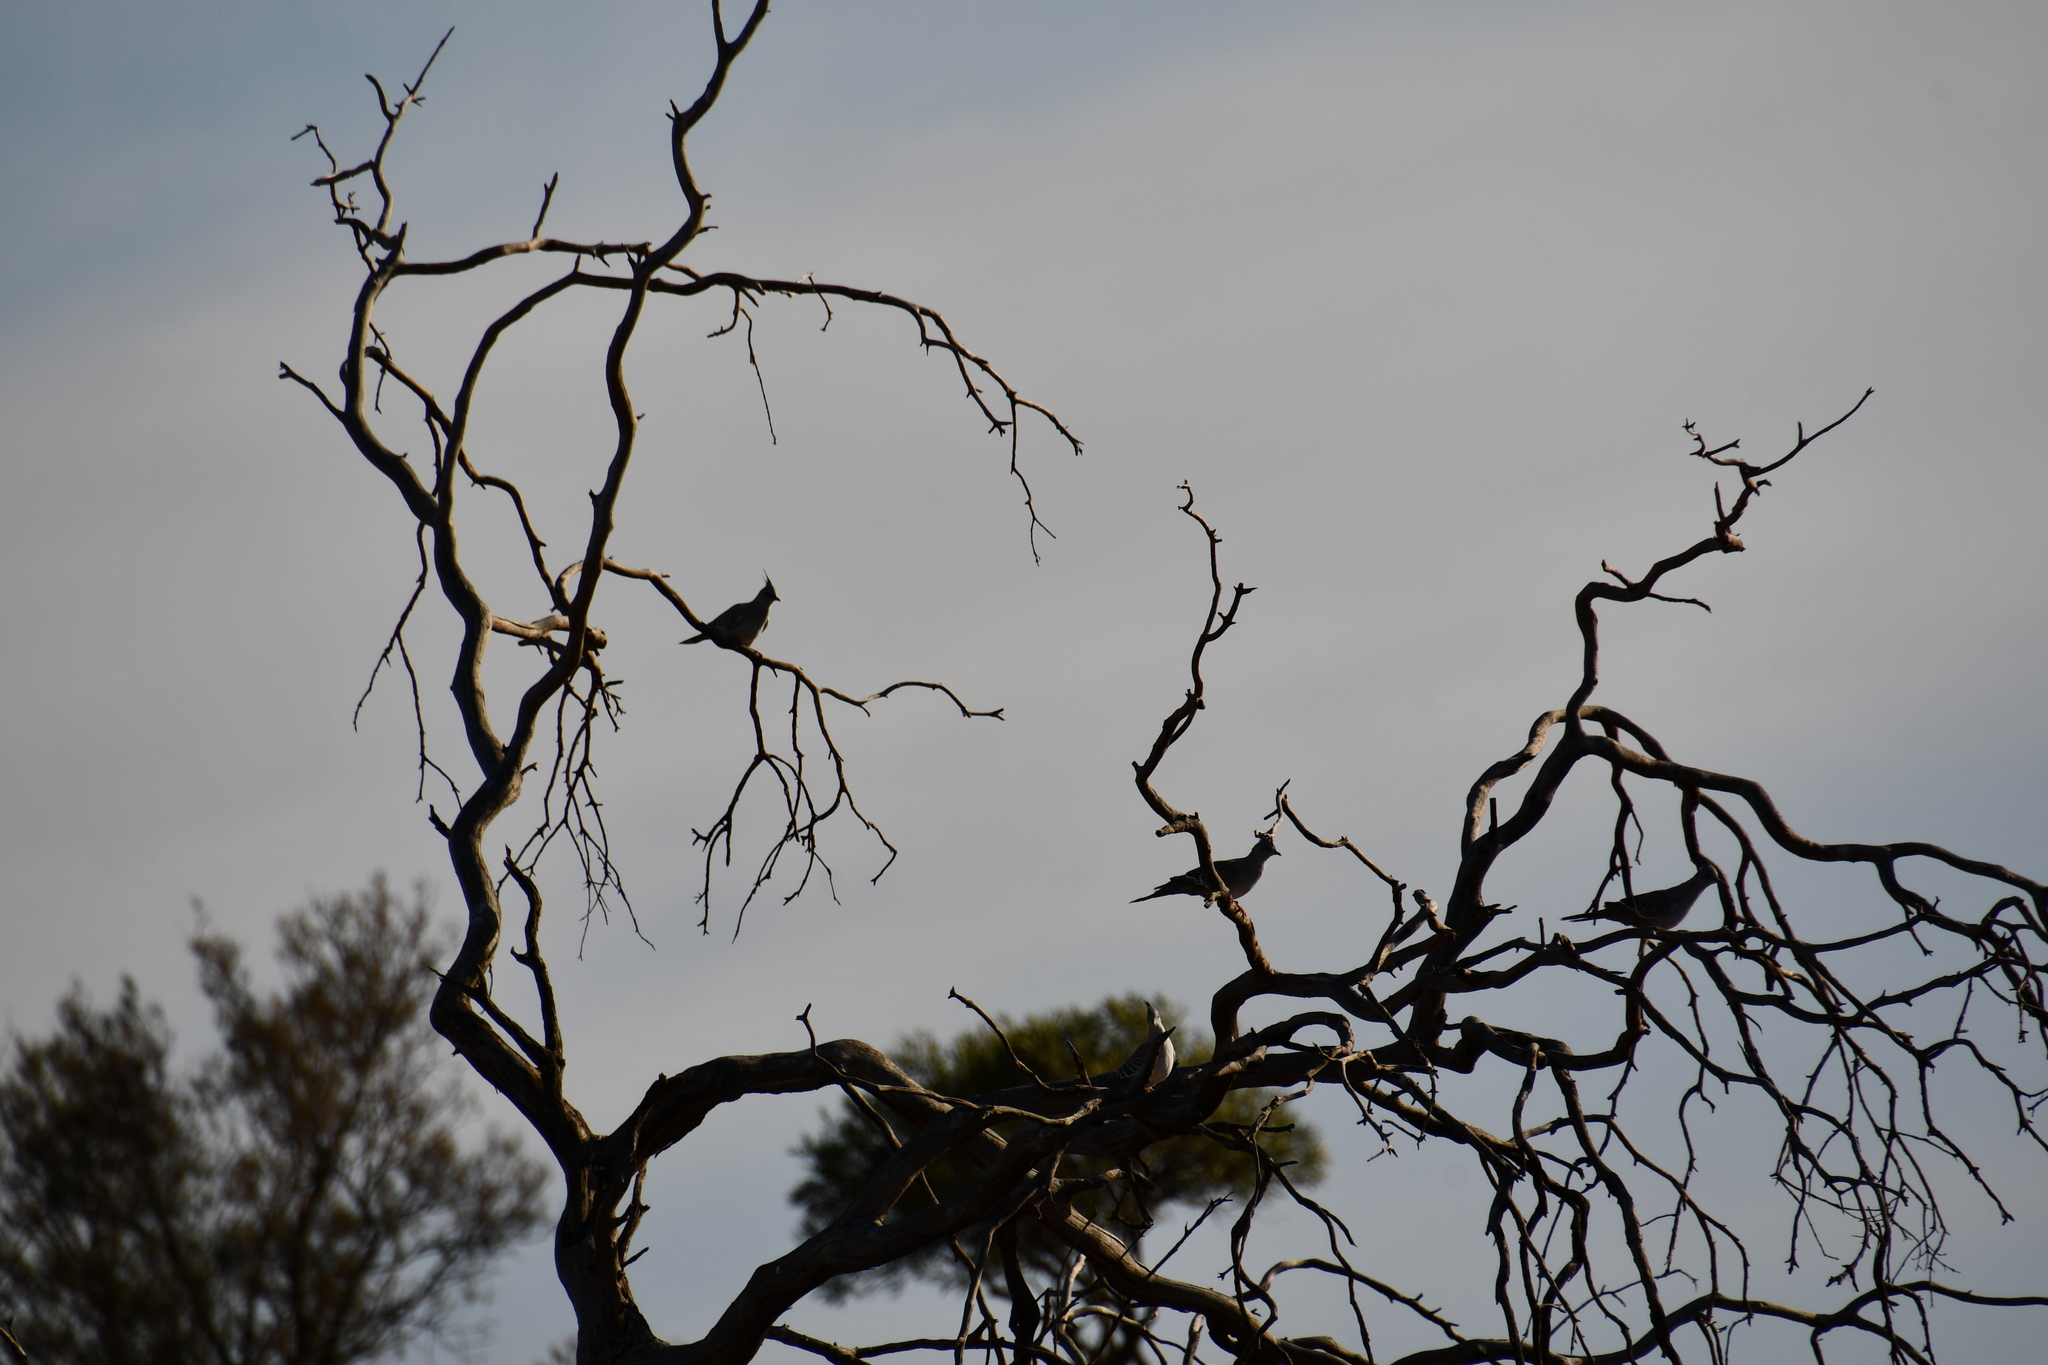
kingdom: Animalia
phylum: Chordata
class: Aves
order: Columbiformes
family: Columbidae
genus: Ocyphaps
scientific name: Ocyphaps lophotes
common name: Crested pigeon
